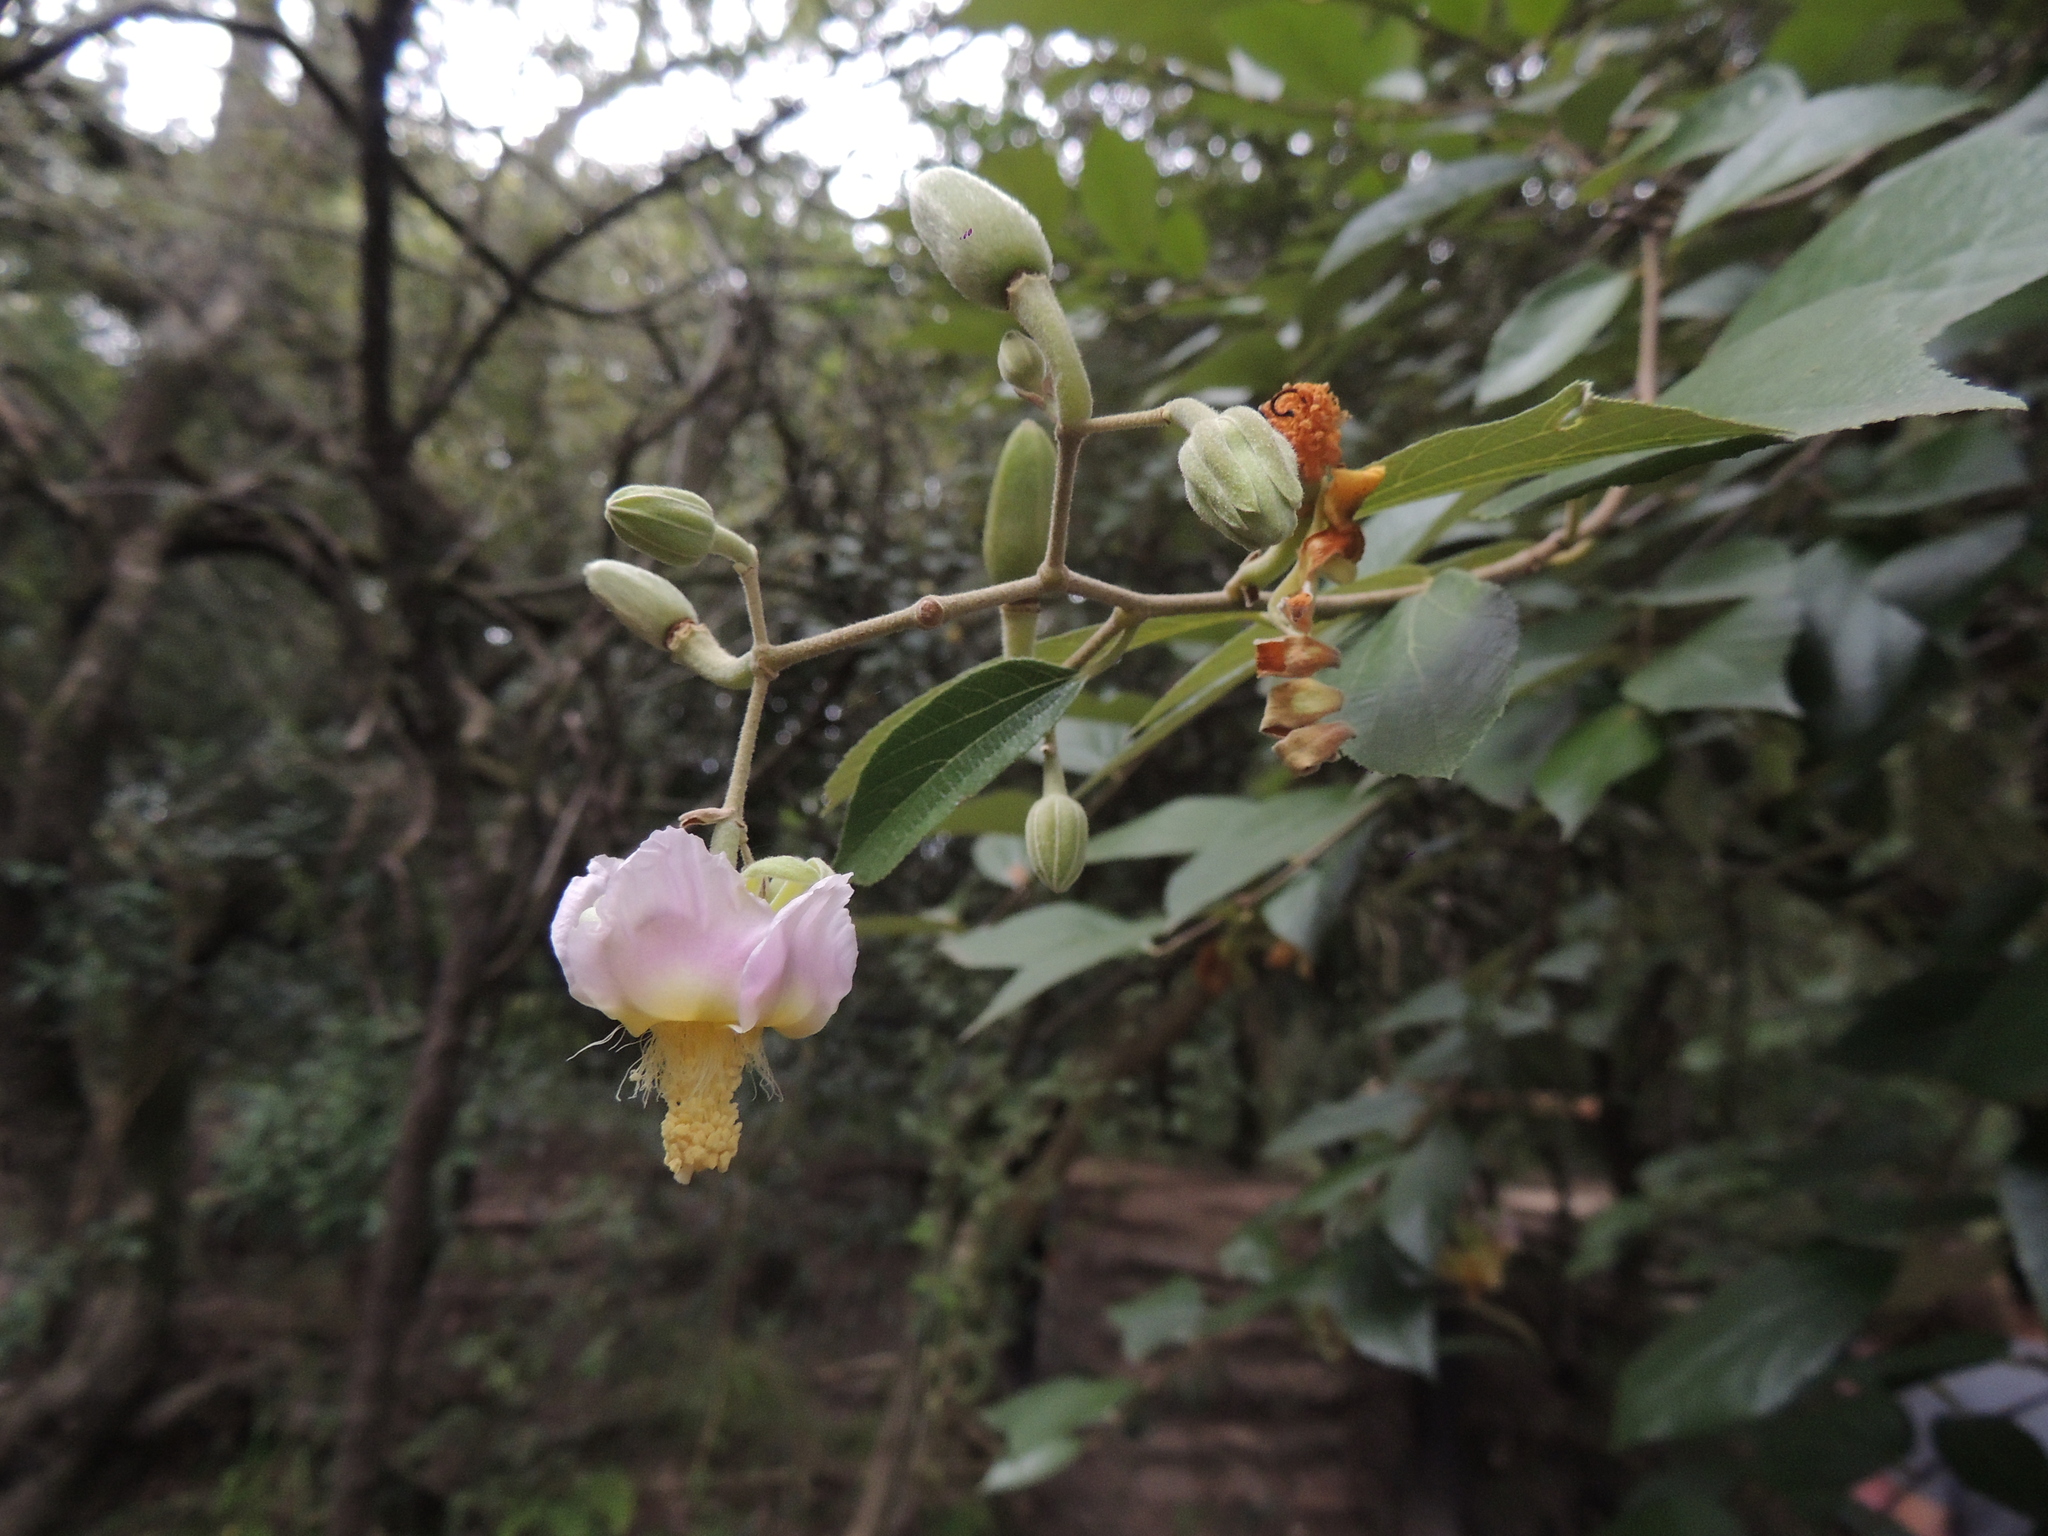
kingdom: Plantae
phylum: Tracheophyta
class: Magnoliopsida
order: Malvales
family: Malvaceae
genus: Luehea
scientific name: Luehea divaricata
